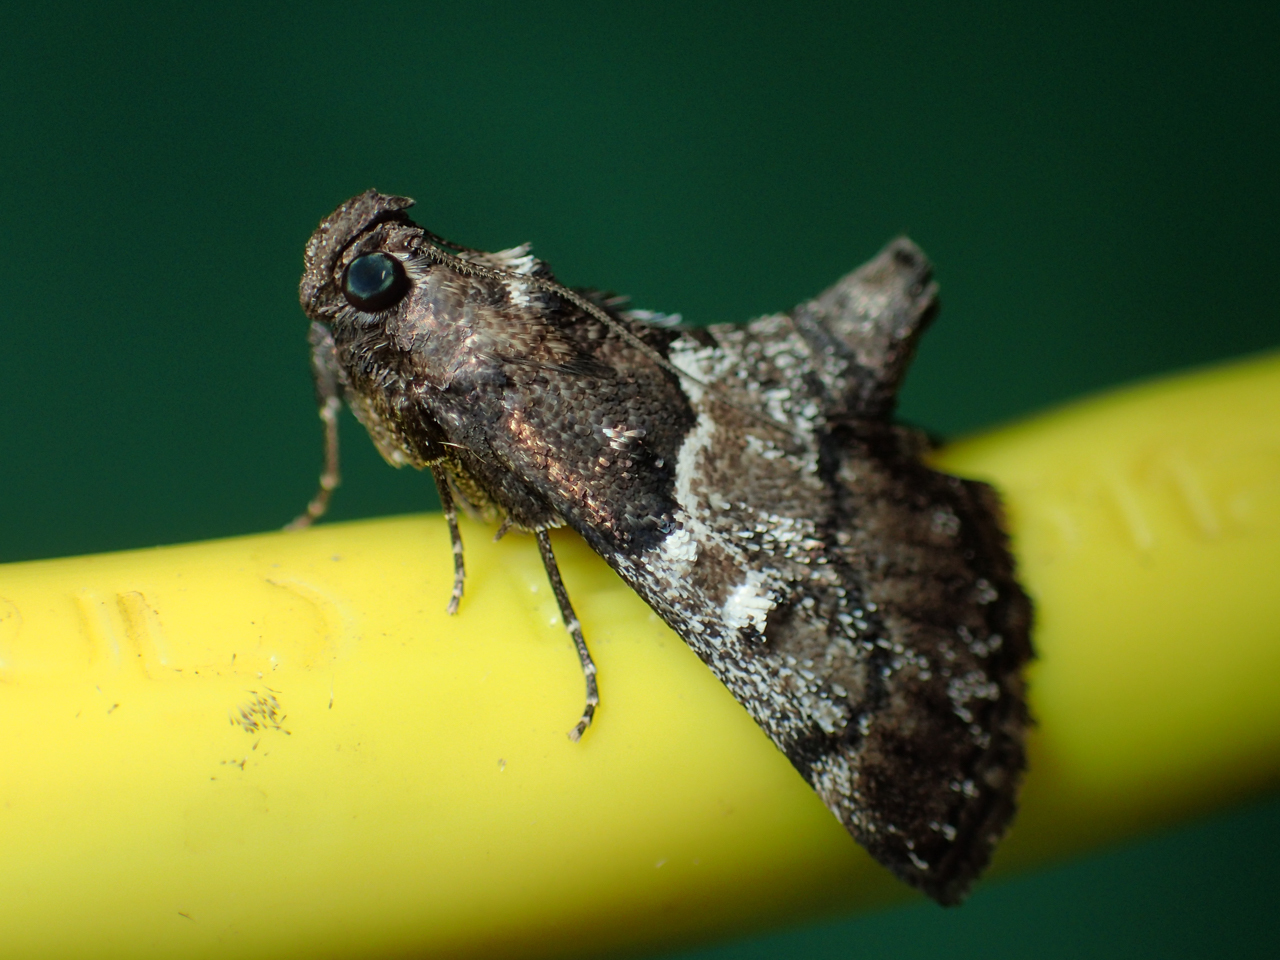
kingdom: Animalia
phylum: Arthropoda
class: Insecta
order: Lepidoptera
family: Pyralidae
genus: Macalla
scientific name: Macalla zelleri
